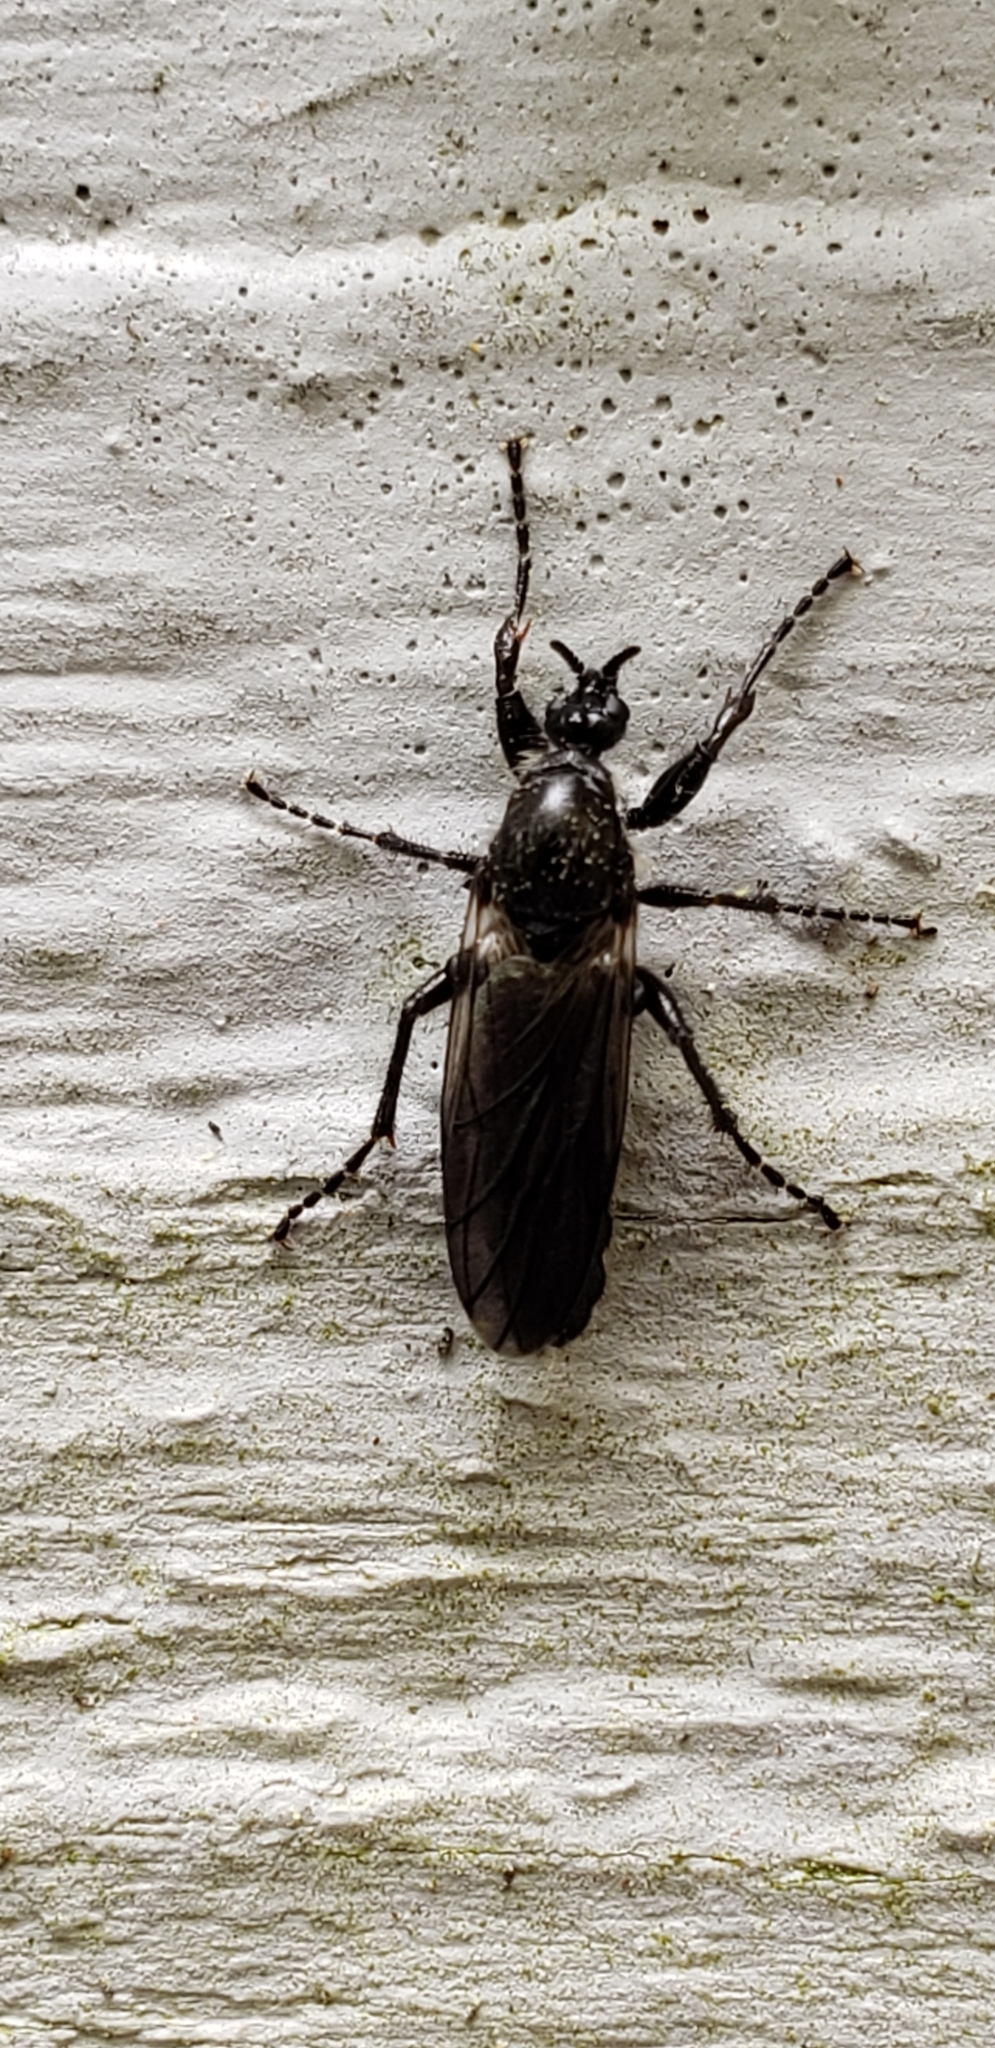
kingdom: Animalia
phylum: Arthropoda
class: Insecta
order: Diptera
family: Bibionidae
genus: Bibio
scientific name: Bibio albipennis
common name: White-winged march fly
